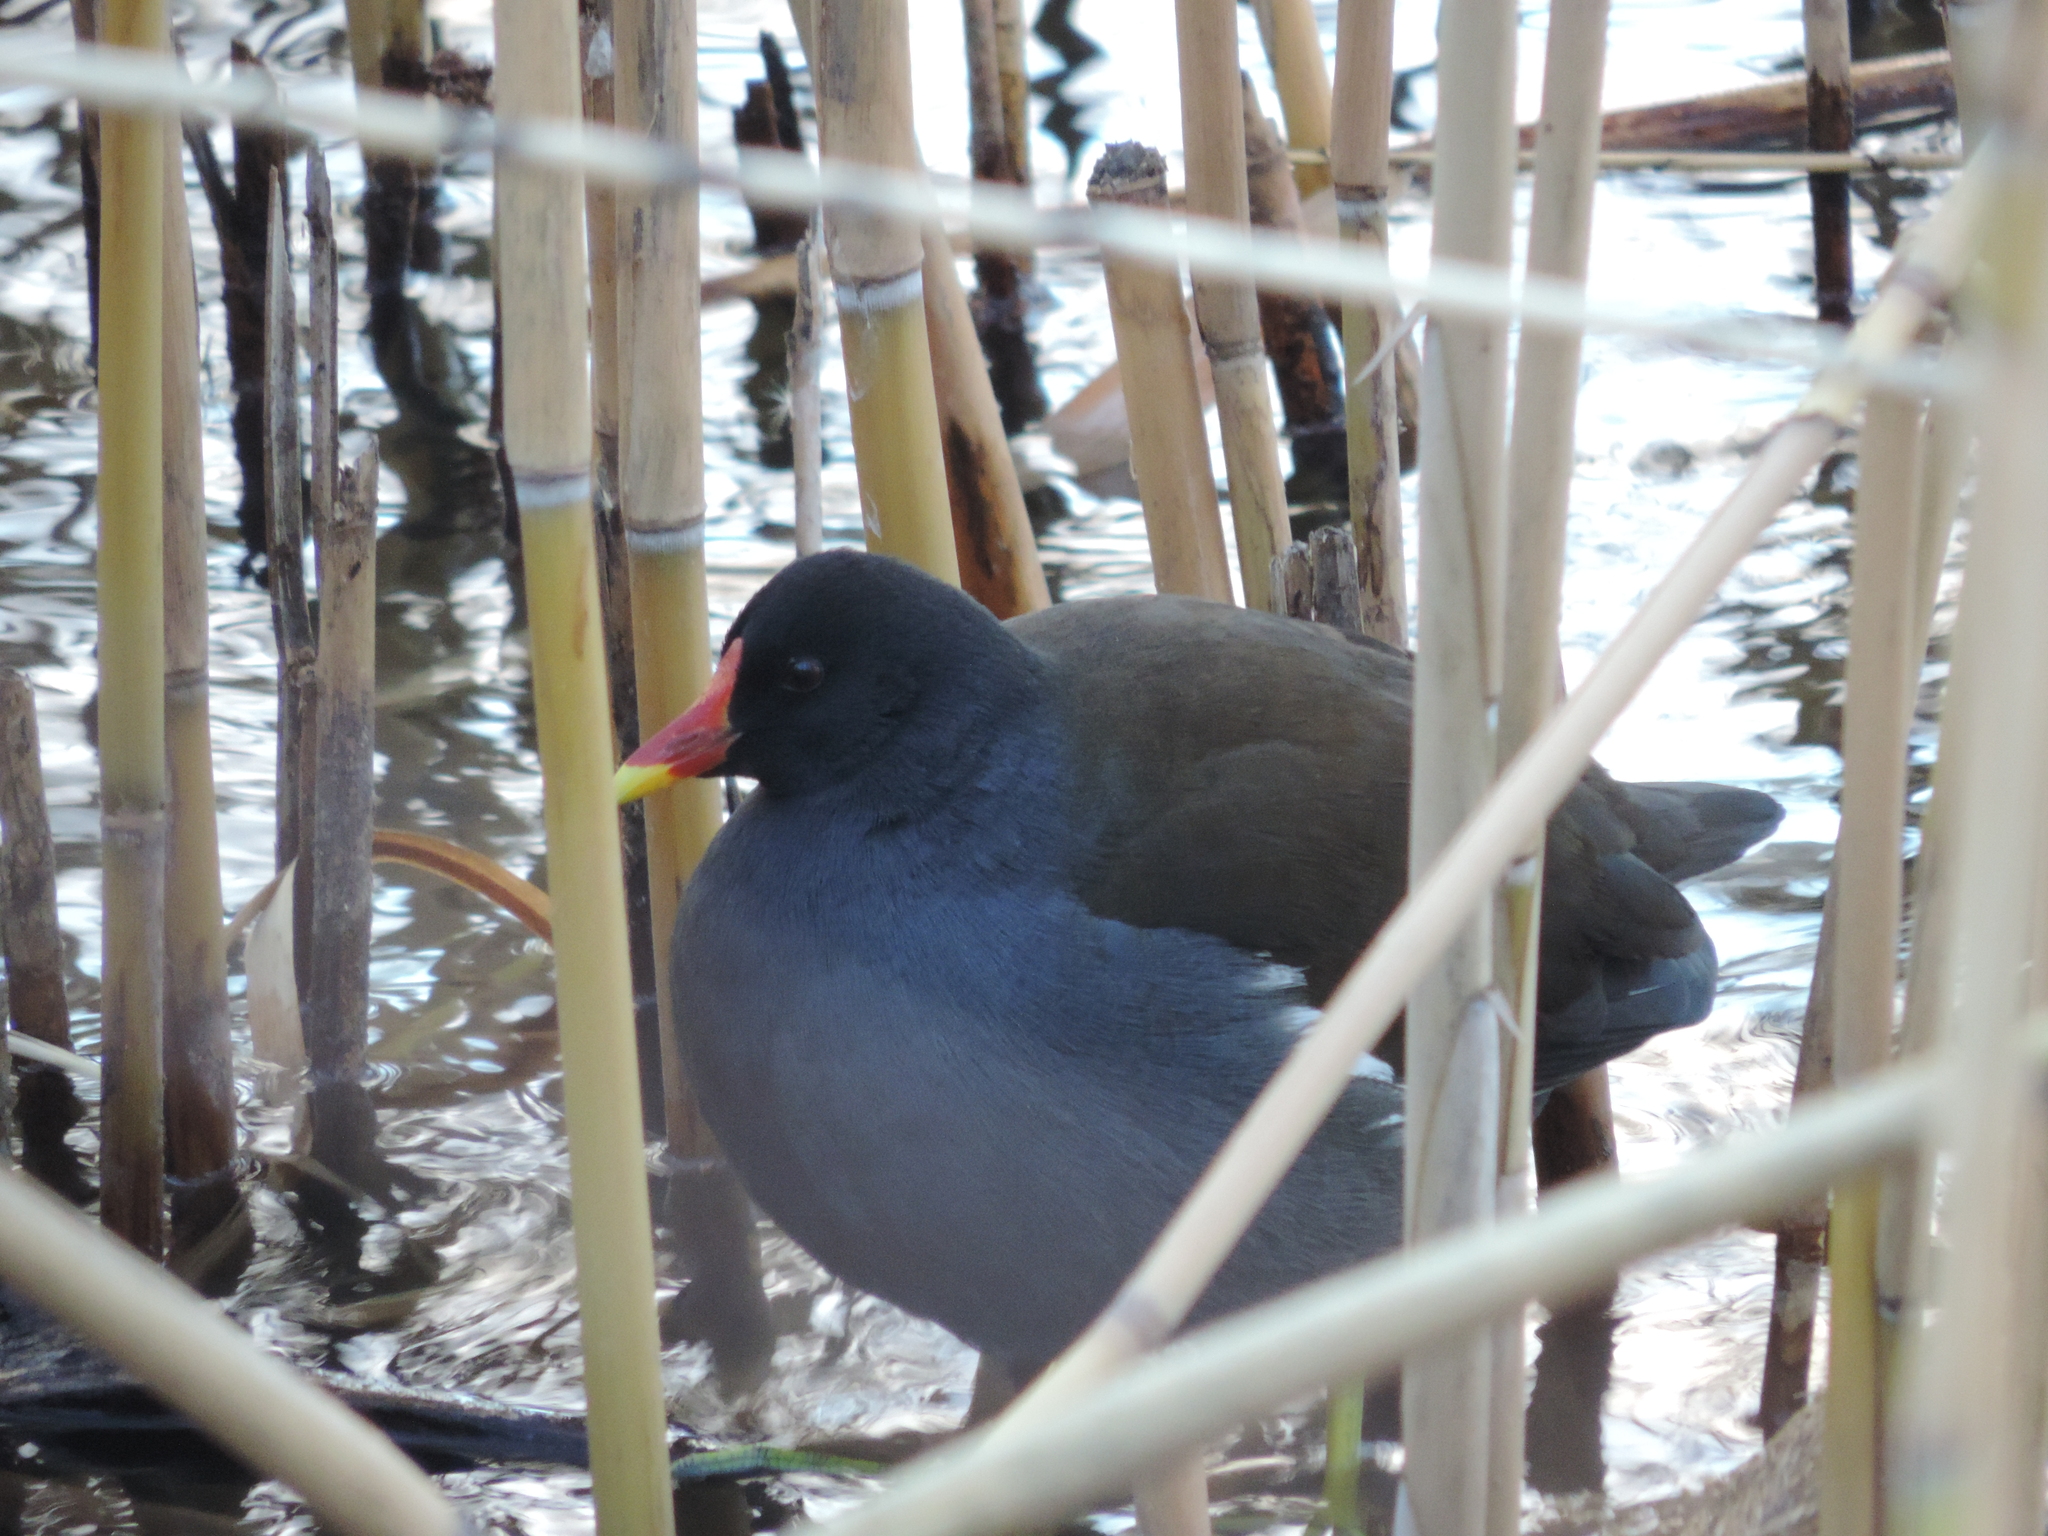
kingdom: Animalia
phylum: Chordata
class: Aves
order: Gruiformes
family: Rallidae
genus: Gallinula
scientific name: Gallinula chloropus
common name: Common moorhen
